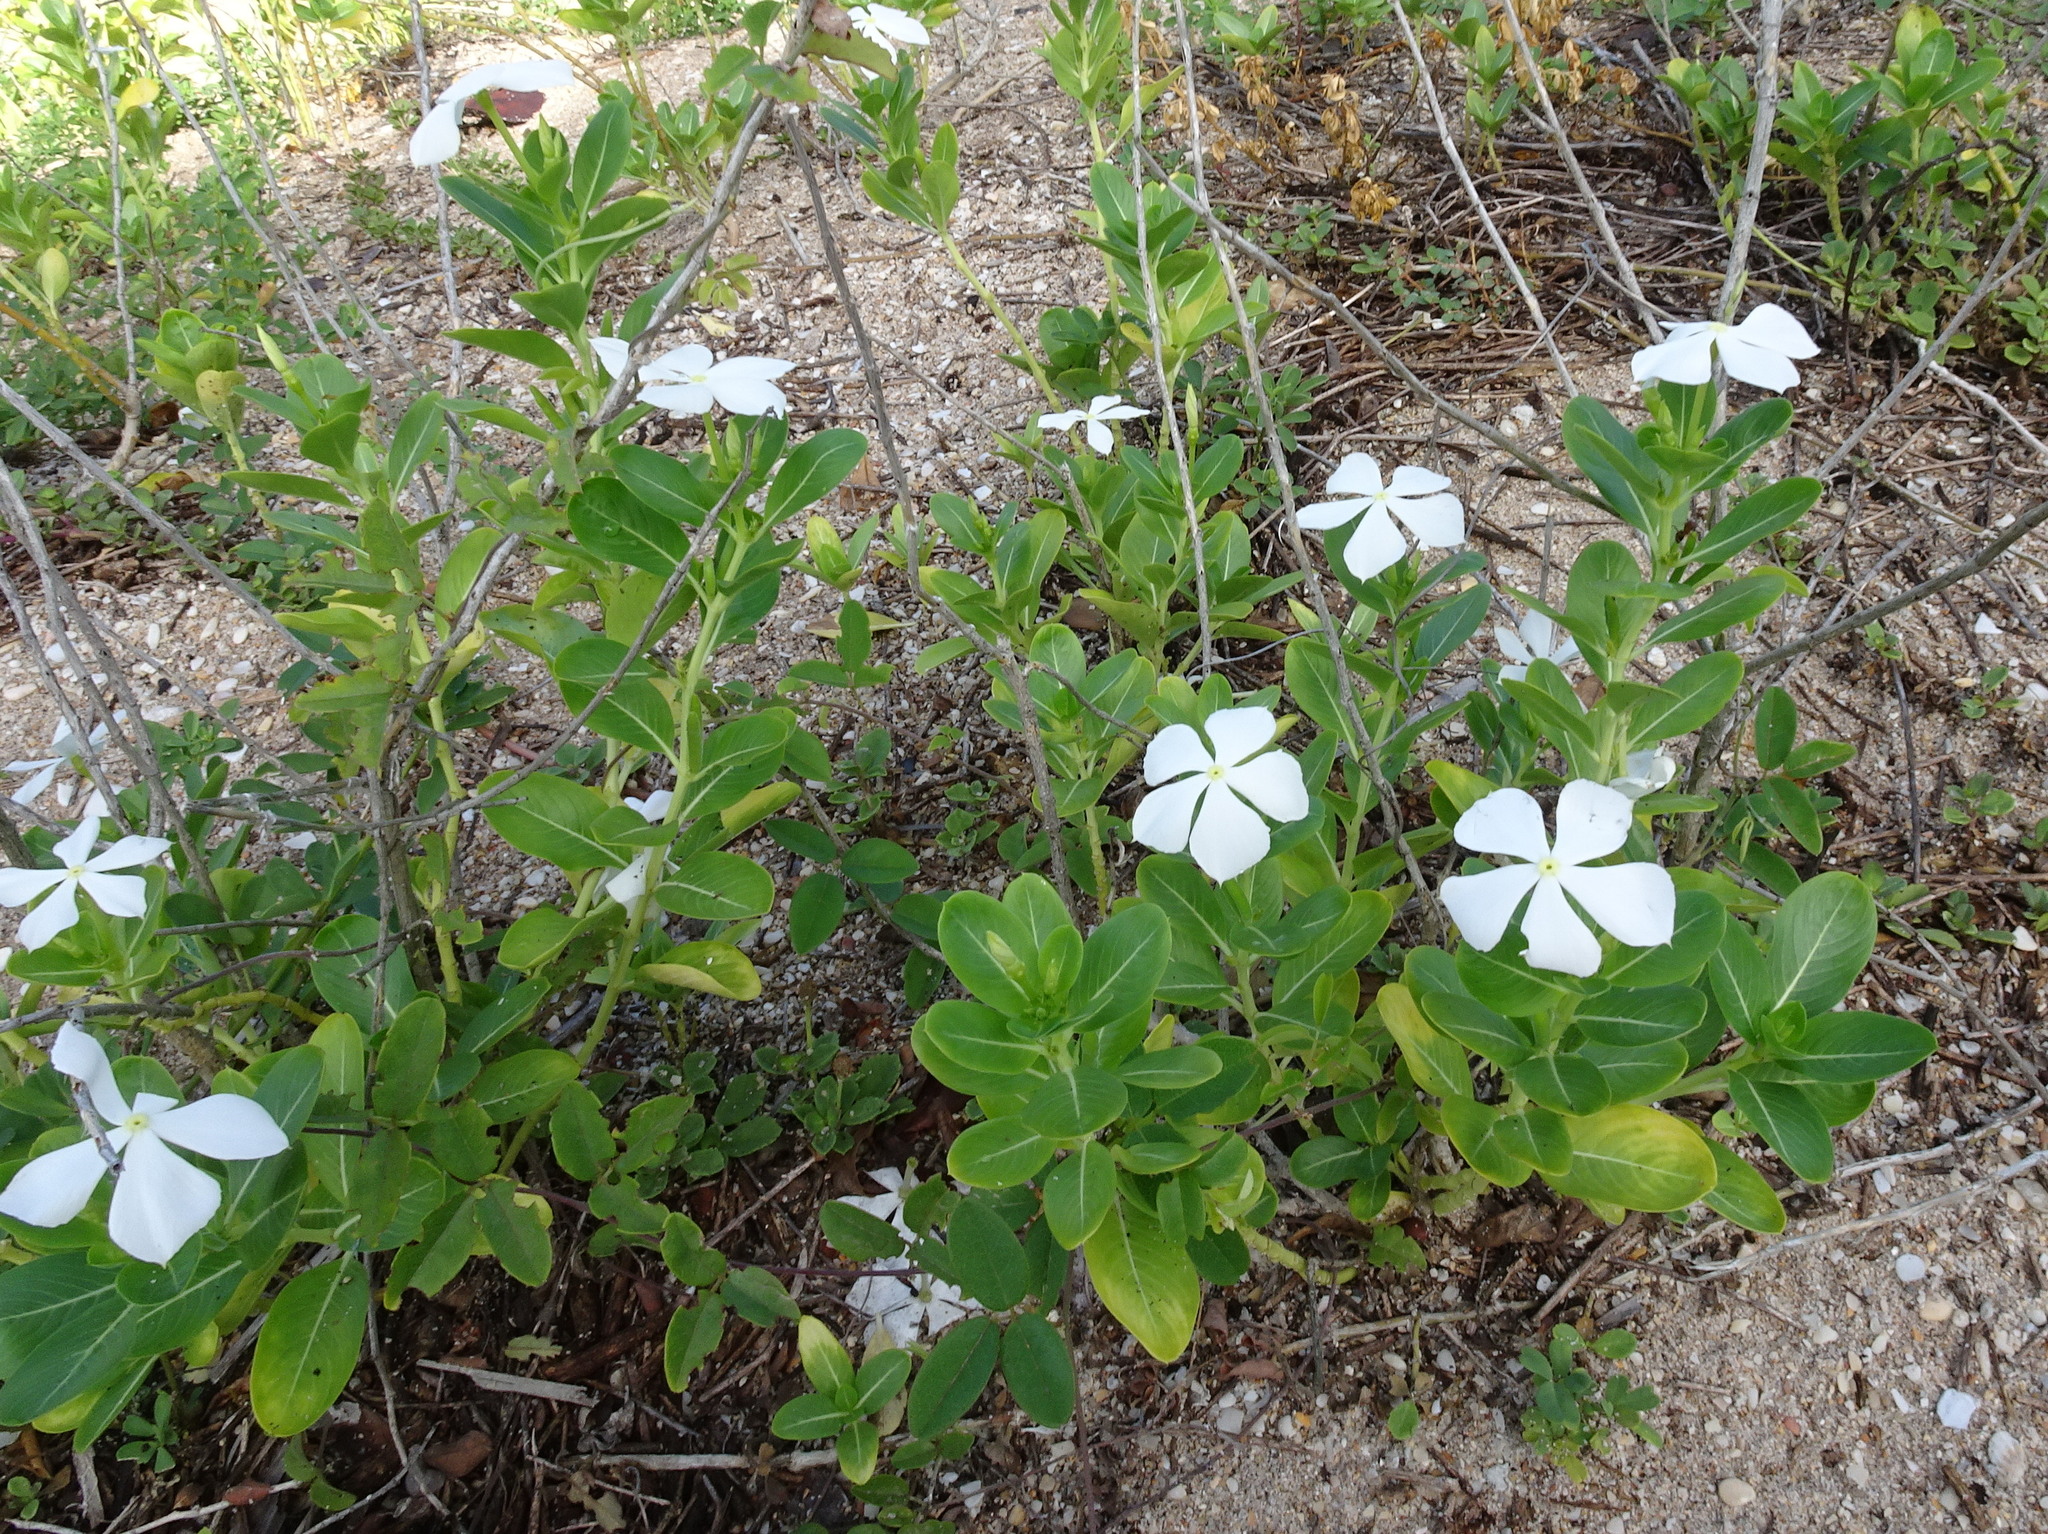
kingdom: Plantae
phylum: Tracheophyta
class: Magnoliopsida
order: Gentianales
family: Apocynaceae
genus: Catharanthus
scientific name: Catharanthus roseus
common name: Madagascar periwinkle
